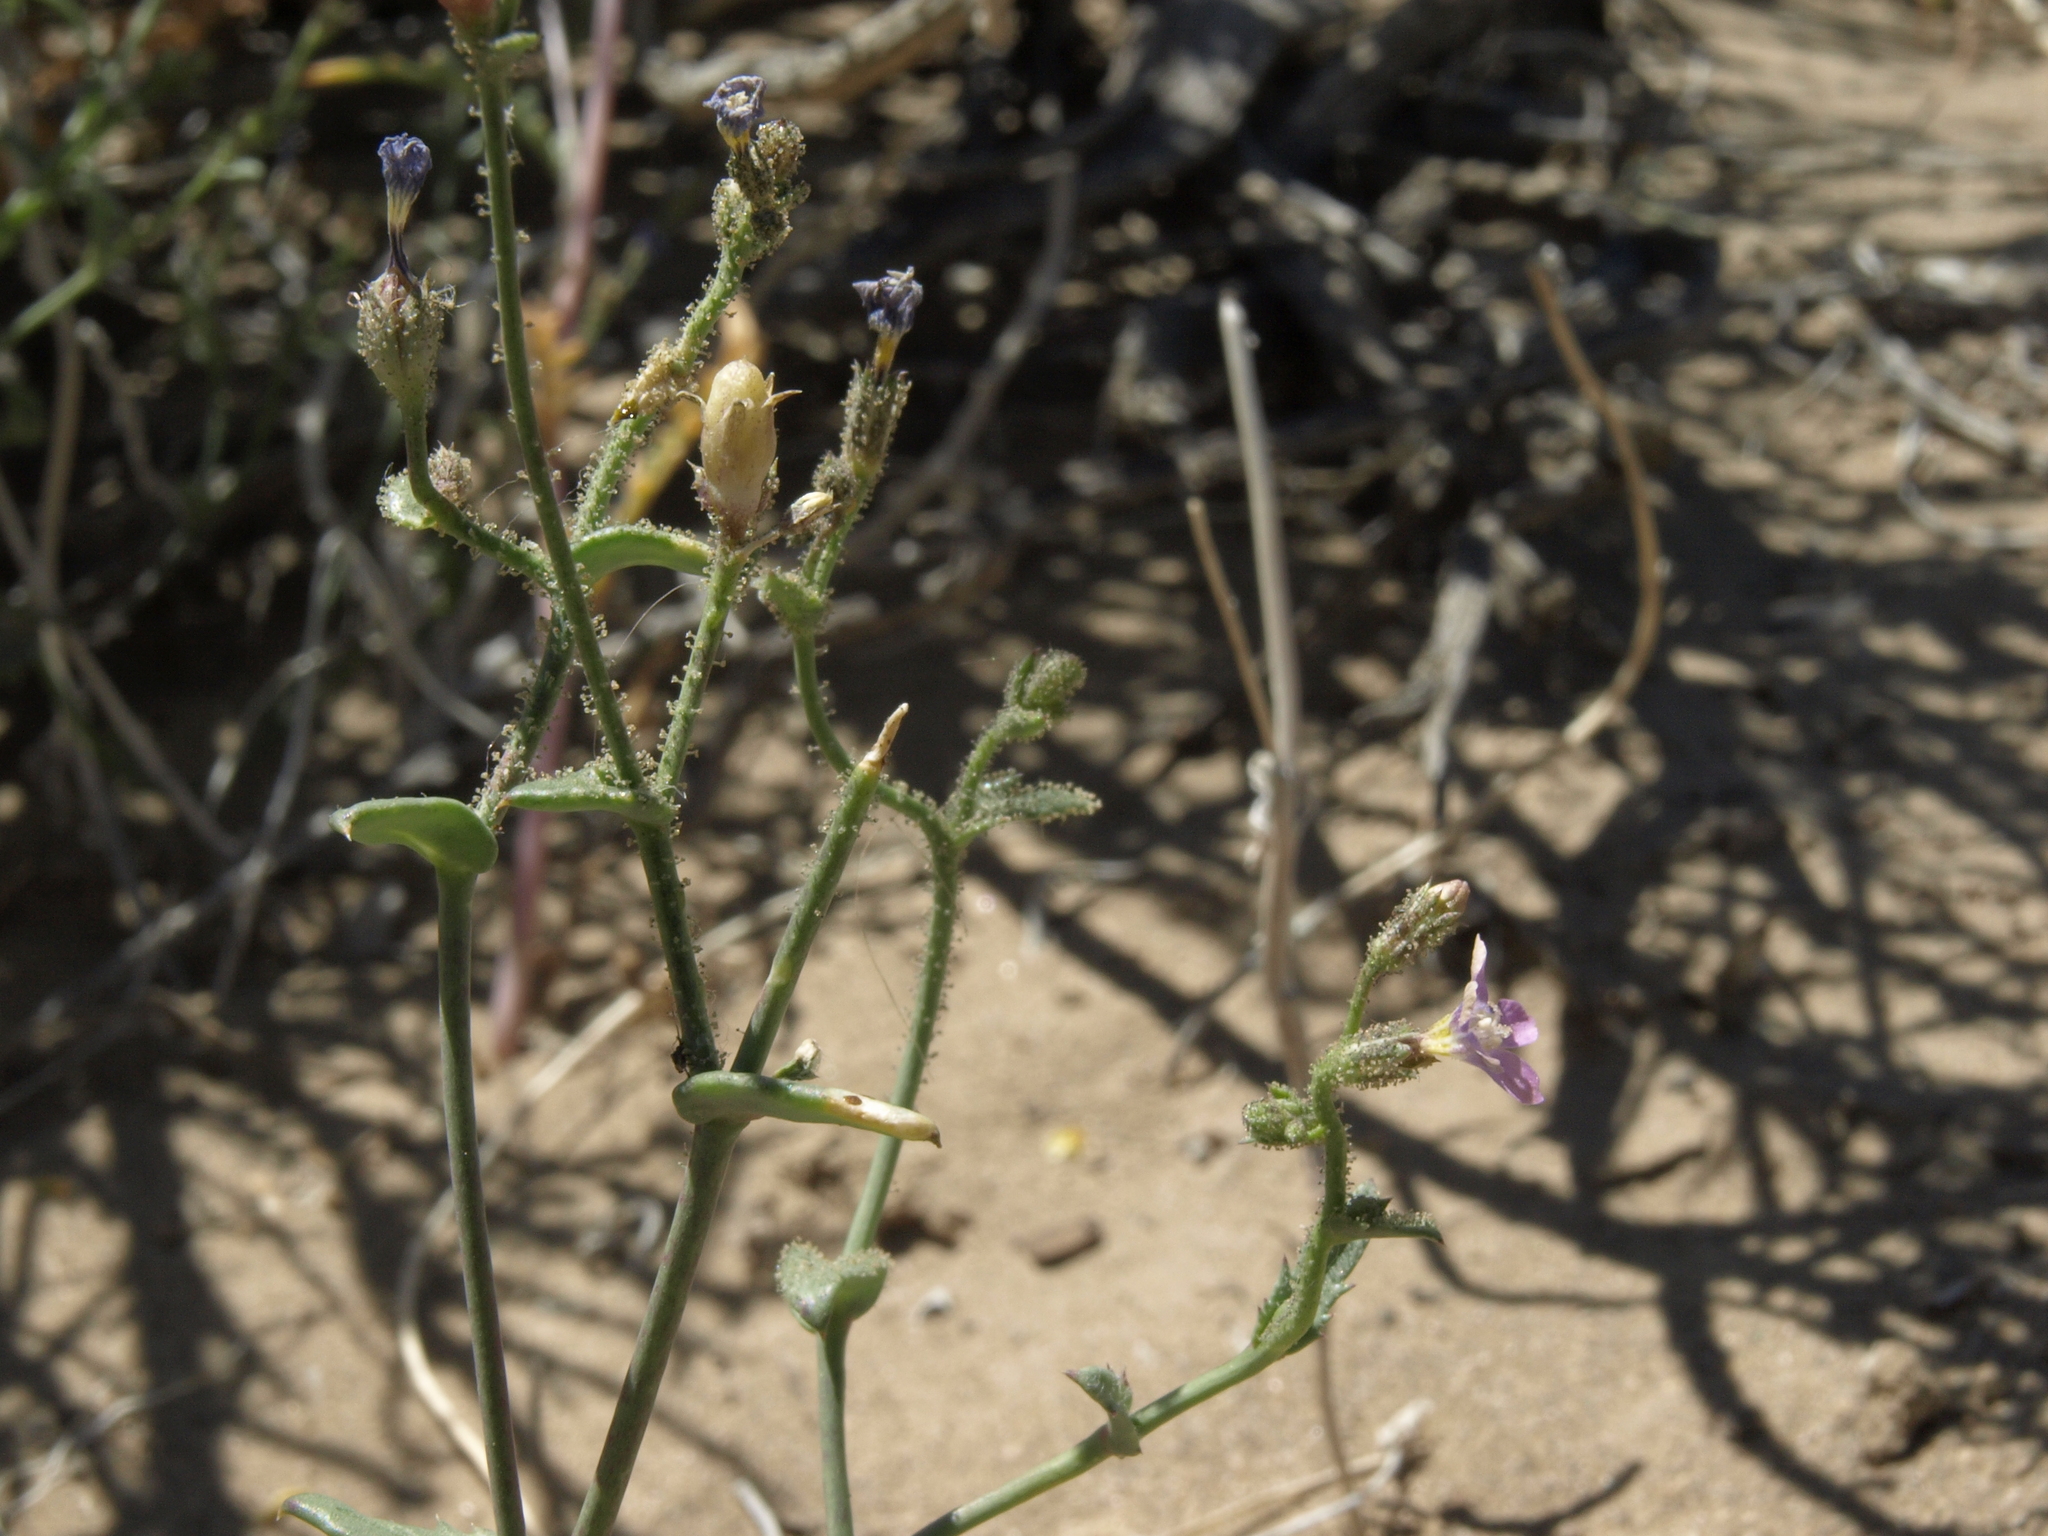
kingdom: Plantae
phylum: Tracheophyta
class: Magnoliopsida
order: Ericales
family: Polemoniaceae
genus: Gilia
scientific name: Gilia sinuata
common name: Rosy gilia
